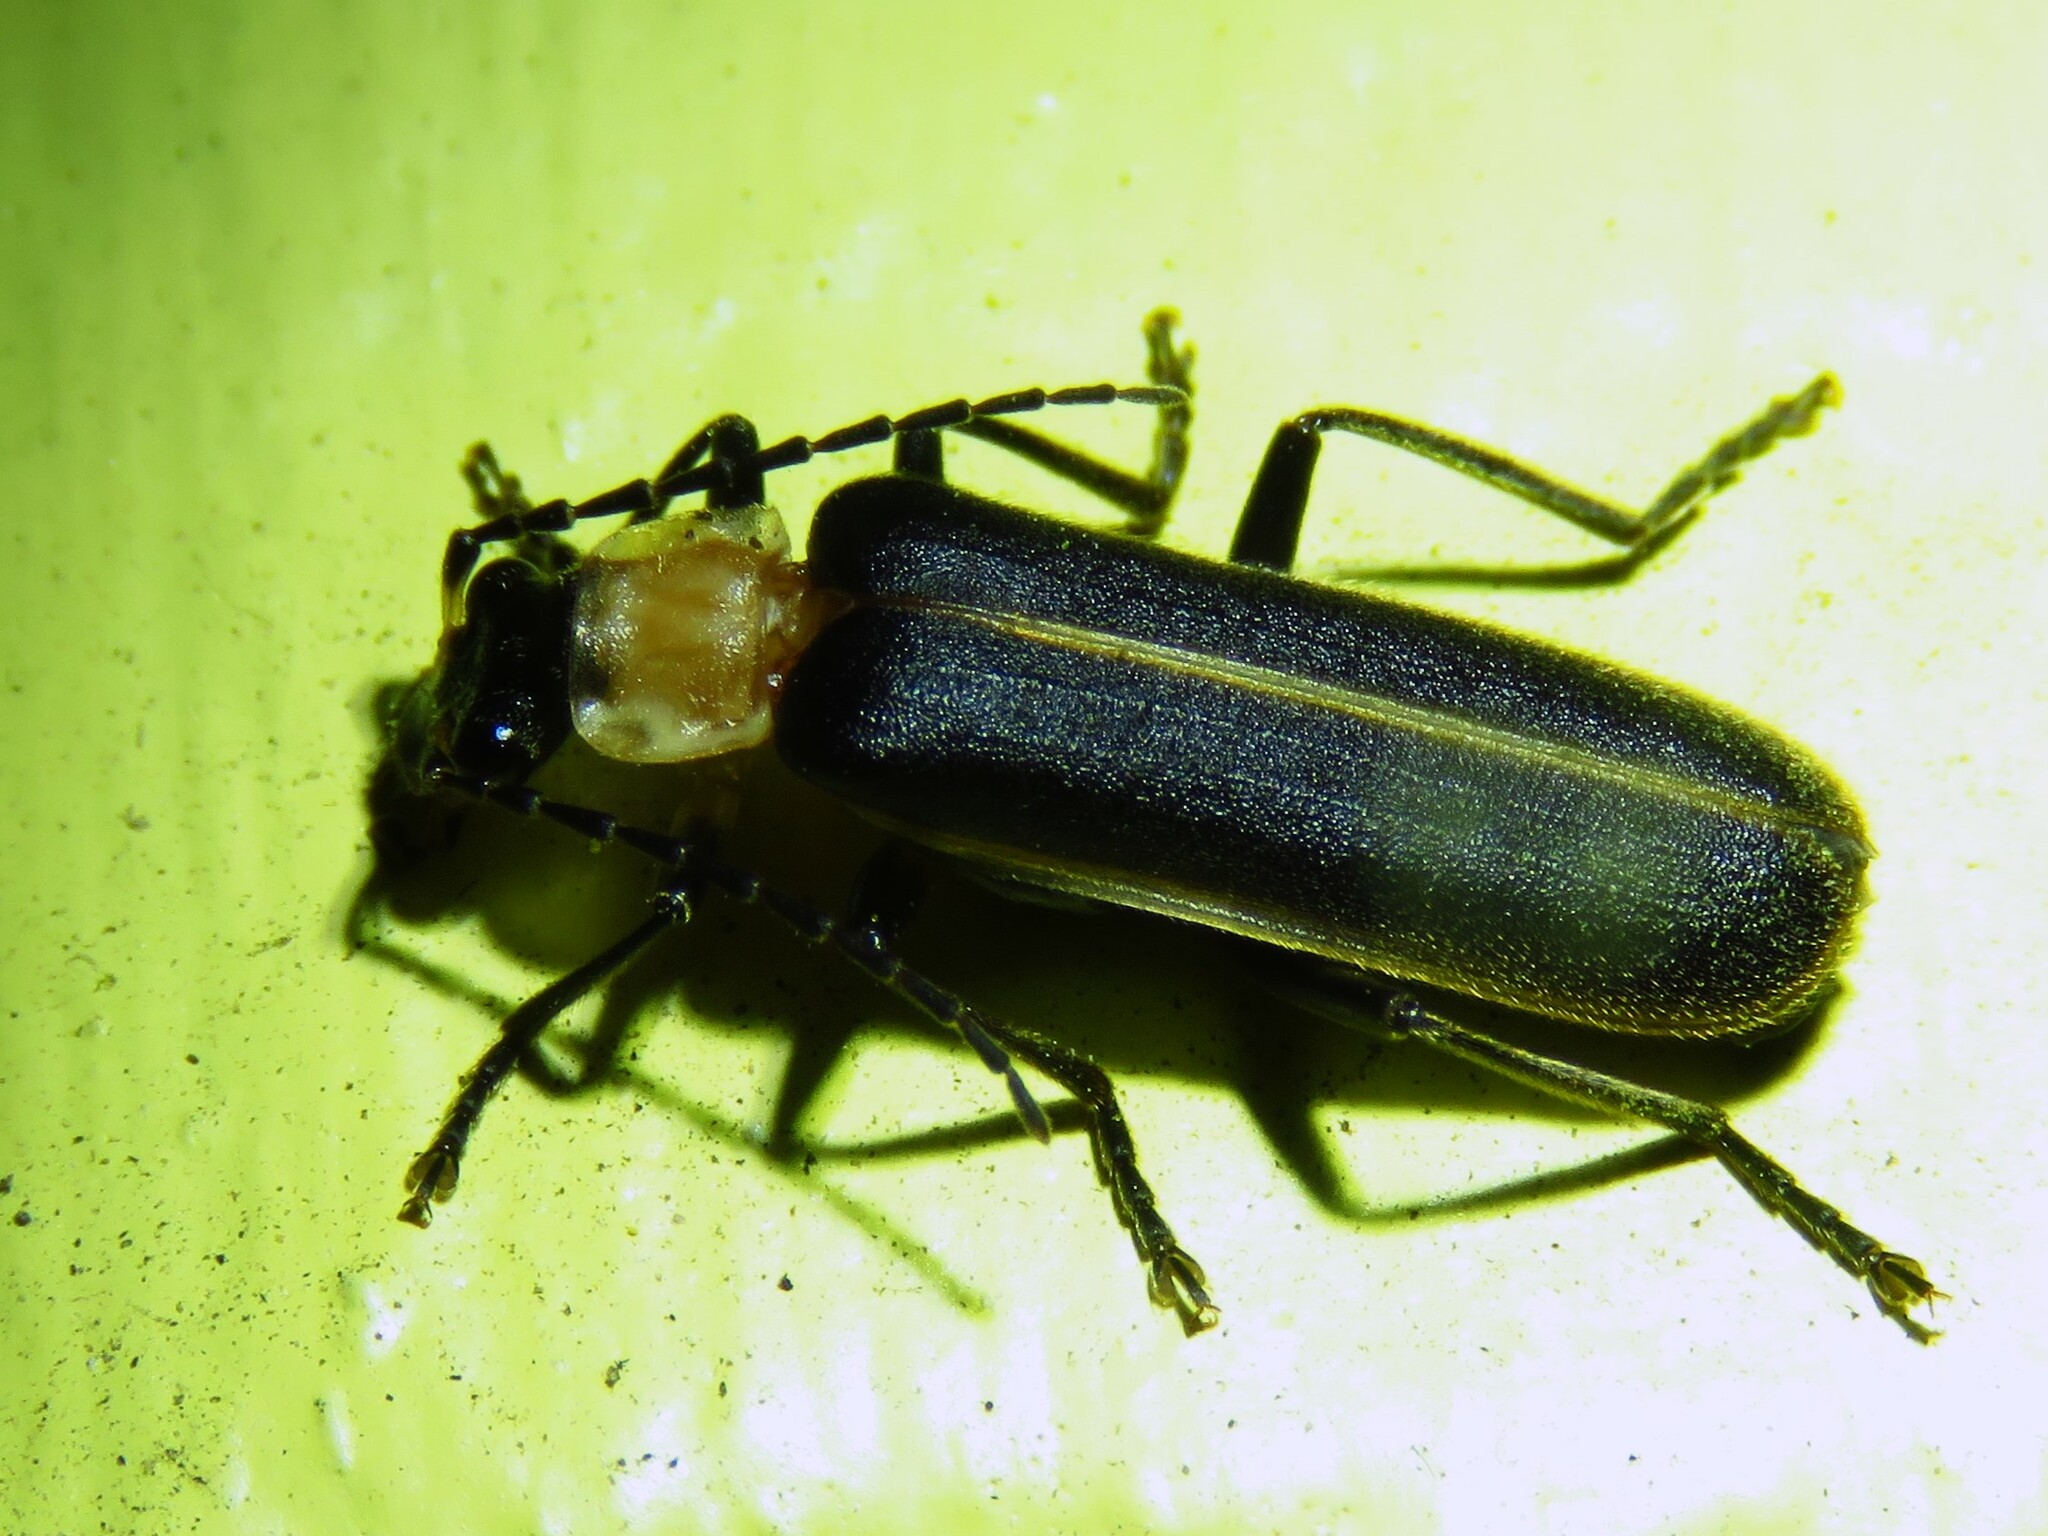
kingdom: Animalia
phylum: Arthropoda
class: Insecta
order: Coleoptera
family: Cantharidae
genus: Podabrus
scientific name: Podabrus quadratus
